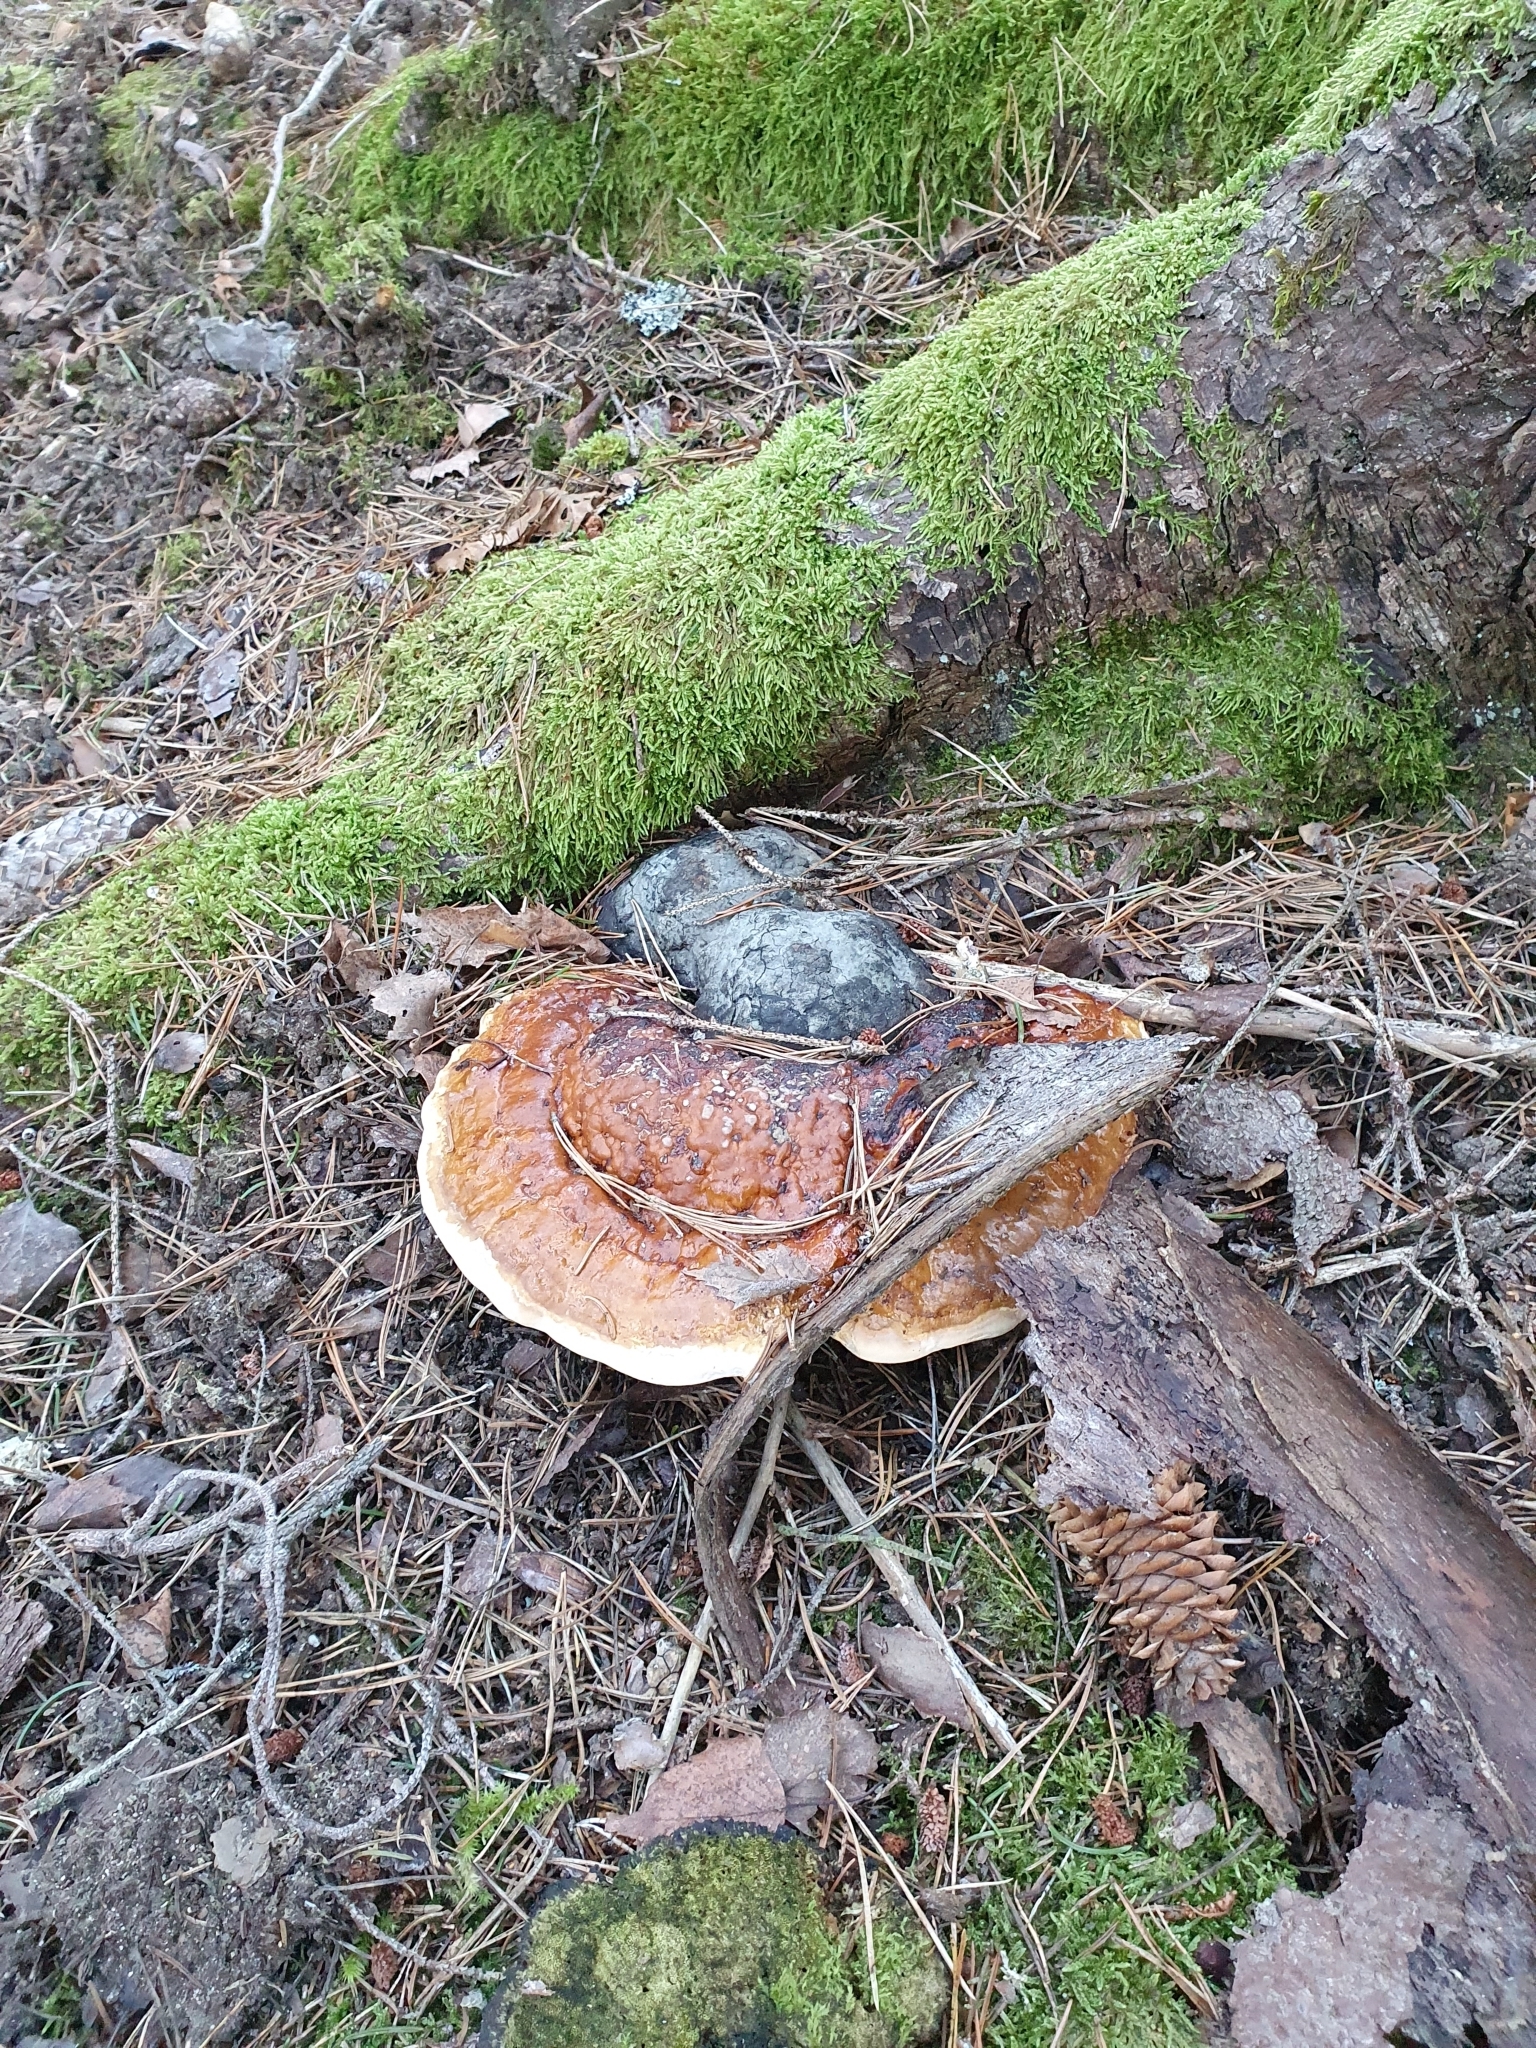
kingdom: Fungi
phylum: Basidiomycota
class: Agaricomycetes
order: Polyporales
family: Fomitopsidaceae
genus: Fomitopsis
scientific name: Fomitopsis pinicola
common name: Red-belted bracket
